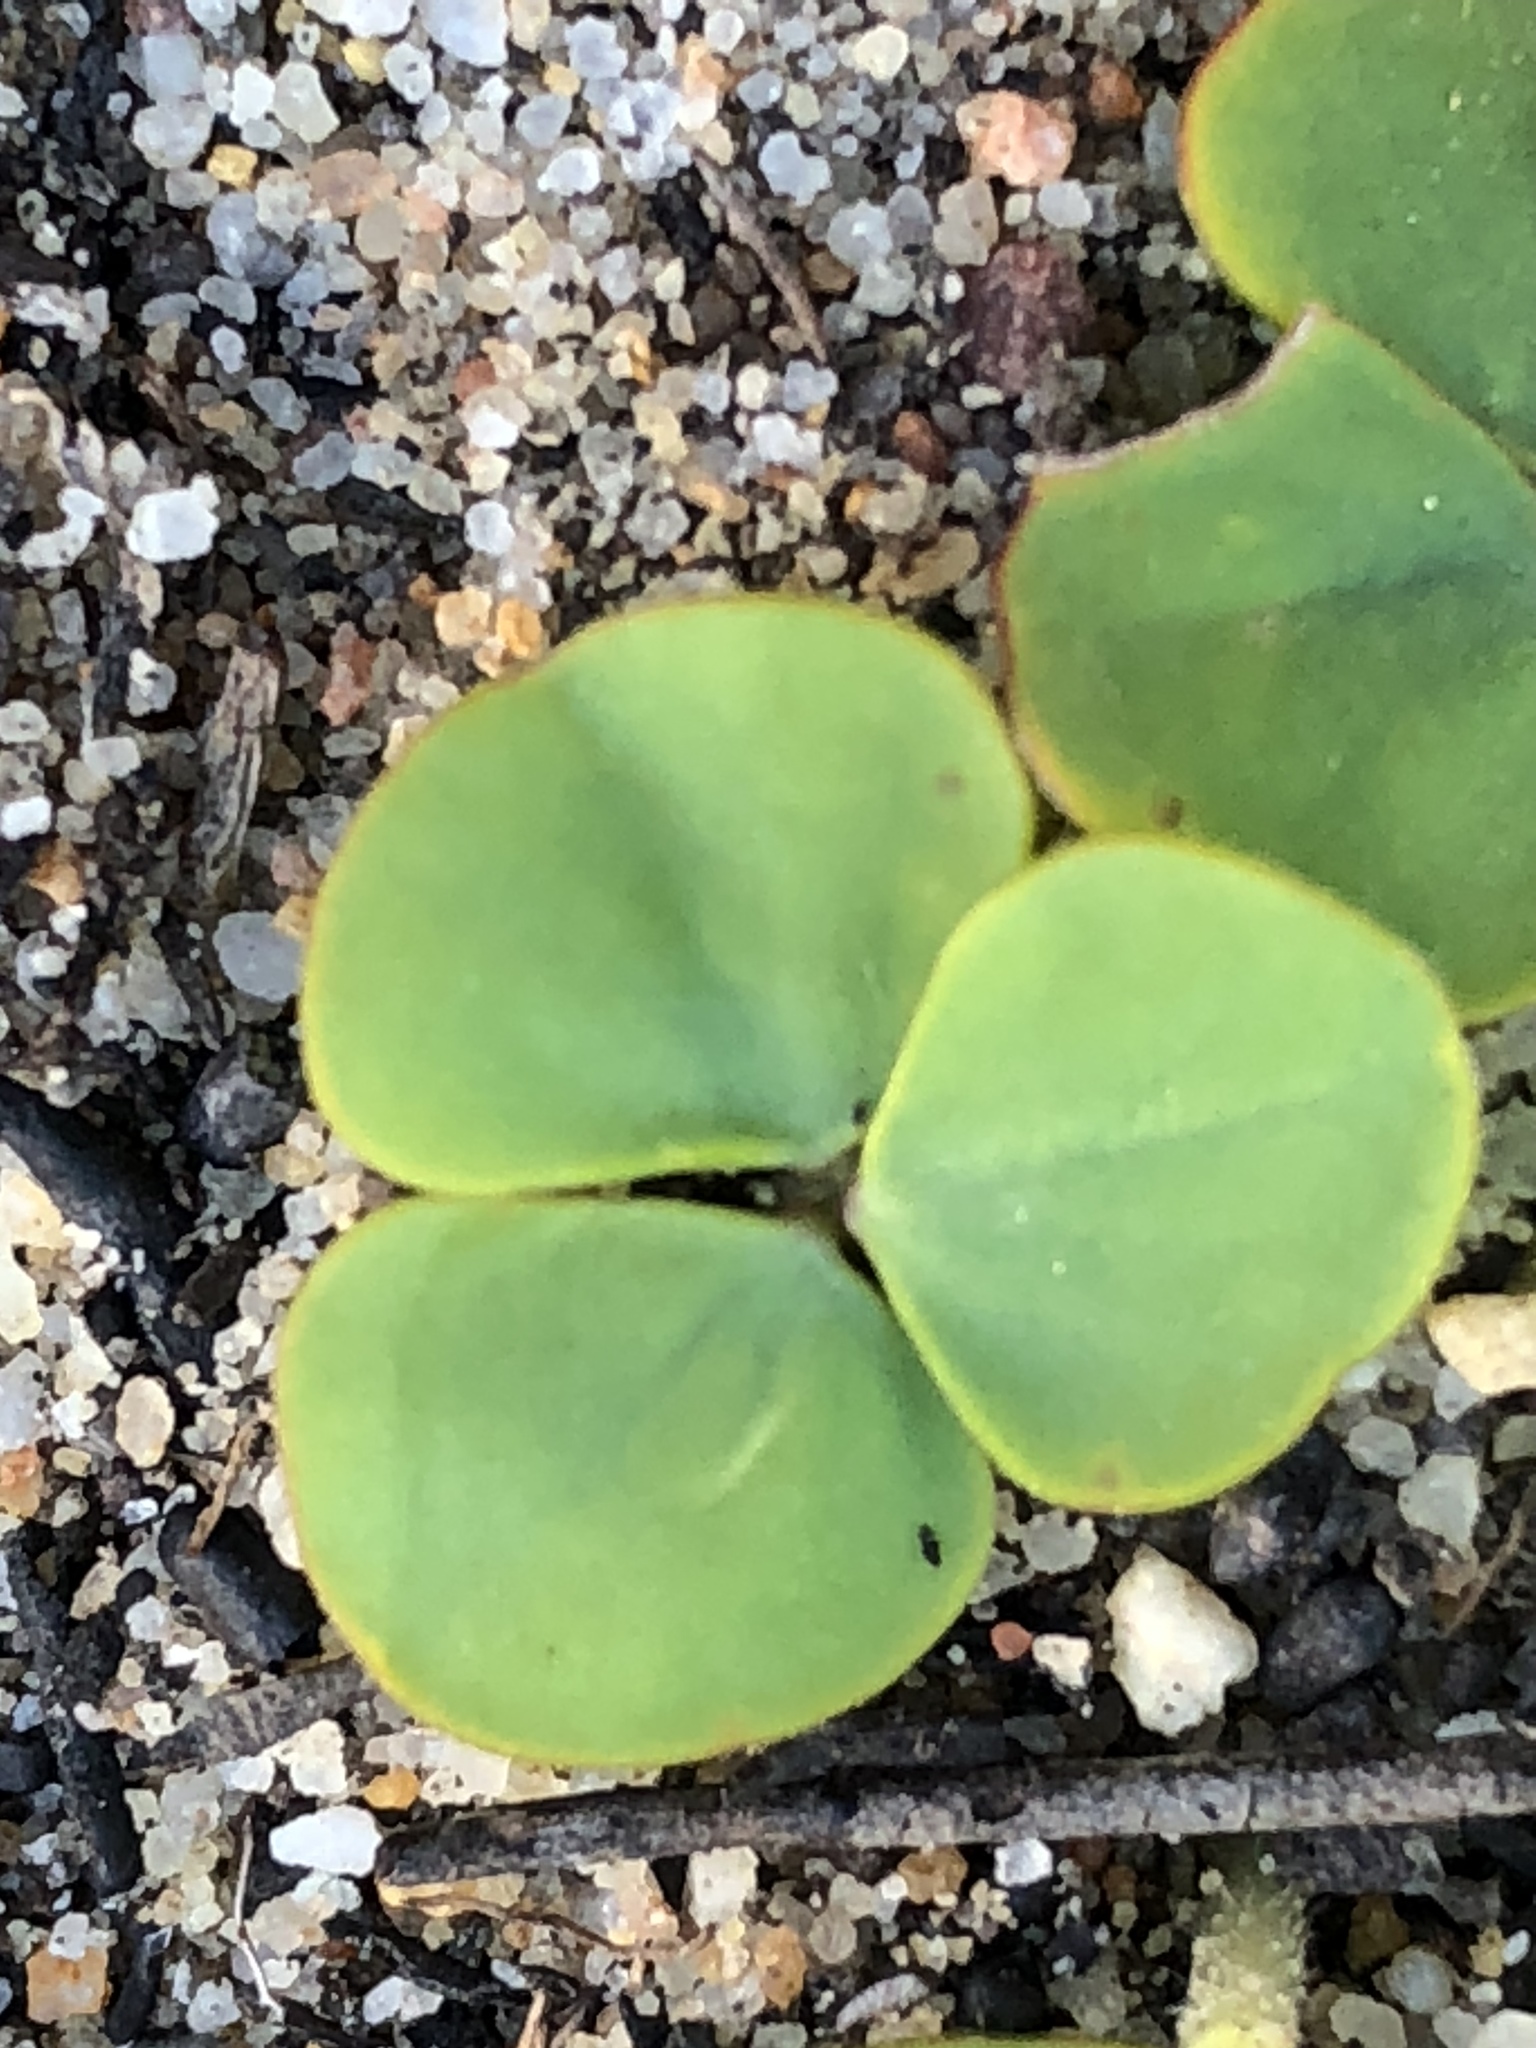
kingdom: Plantae
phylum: Tracheophyta
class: Magnoliopsida
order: Oxalidales
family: Oxalidaceae
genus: Oxalis
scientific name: Oxalis luteola
